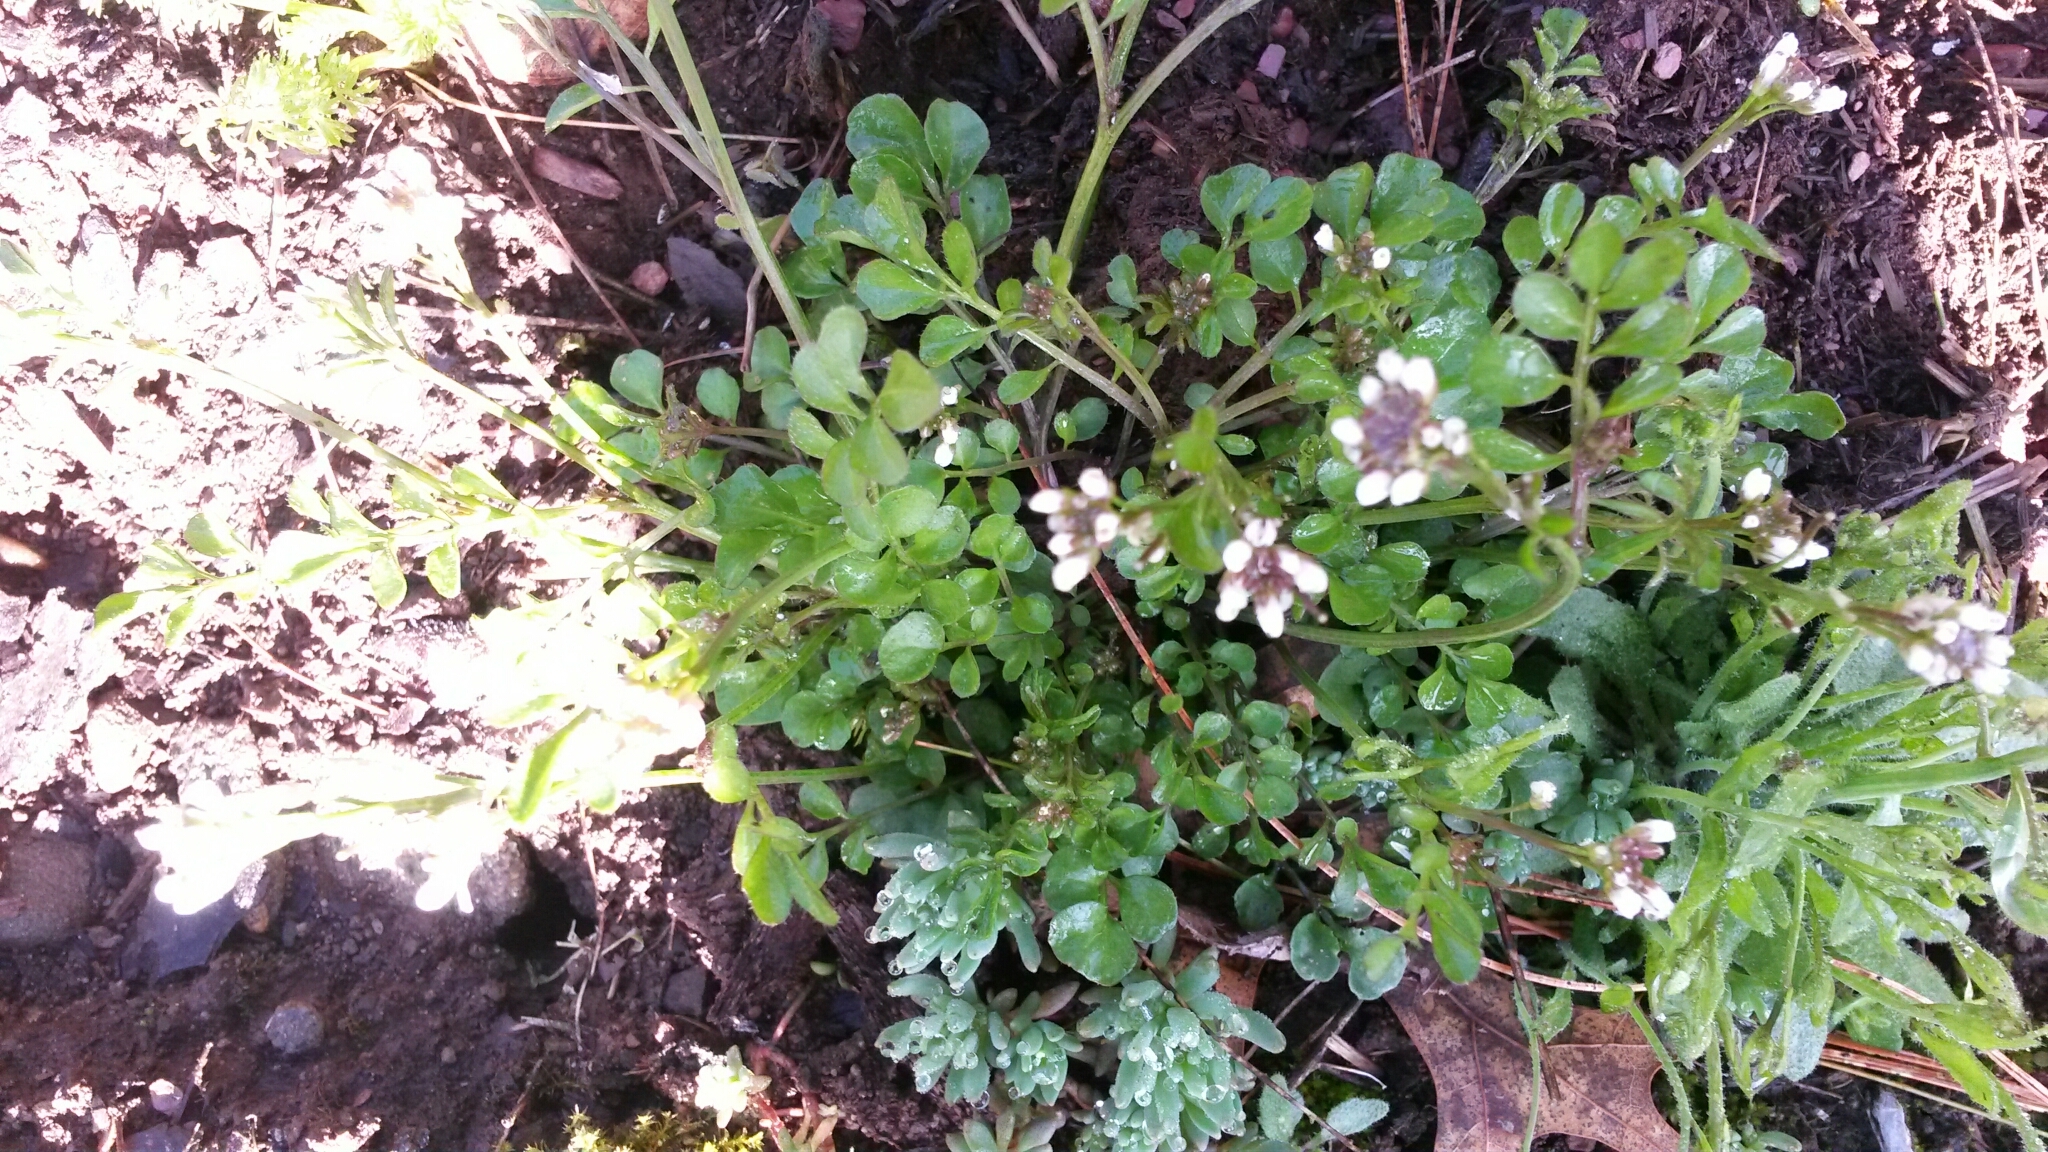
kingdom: Plantae
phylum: Tracheophyta
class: Magnoliopsida
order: Brassicales
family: Brassicaceae
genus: Cardamine
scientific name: Cardamine hirsuta
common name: Hairy bittercress
